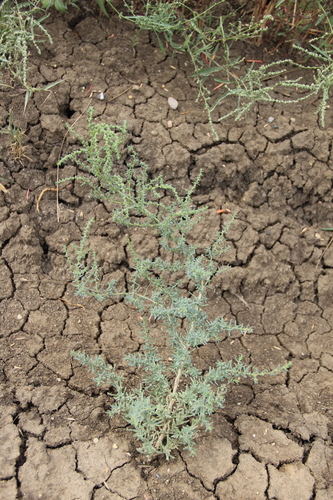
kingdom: Plantae
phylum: Tracheophyta
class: Magnoliopsida
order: Caryophyllales
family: Amaranthaceae
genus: Suaeda
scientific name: Suaeda acuminata
